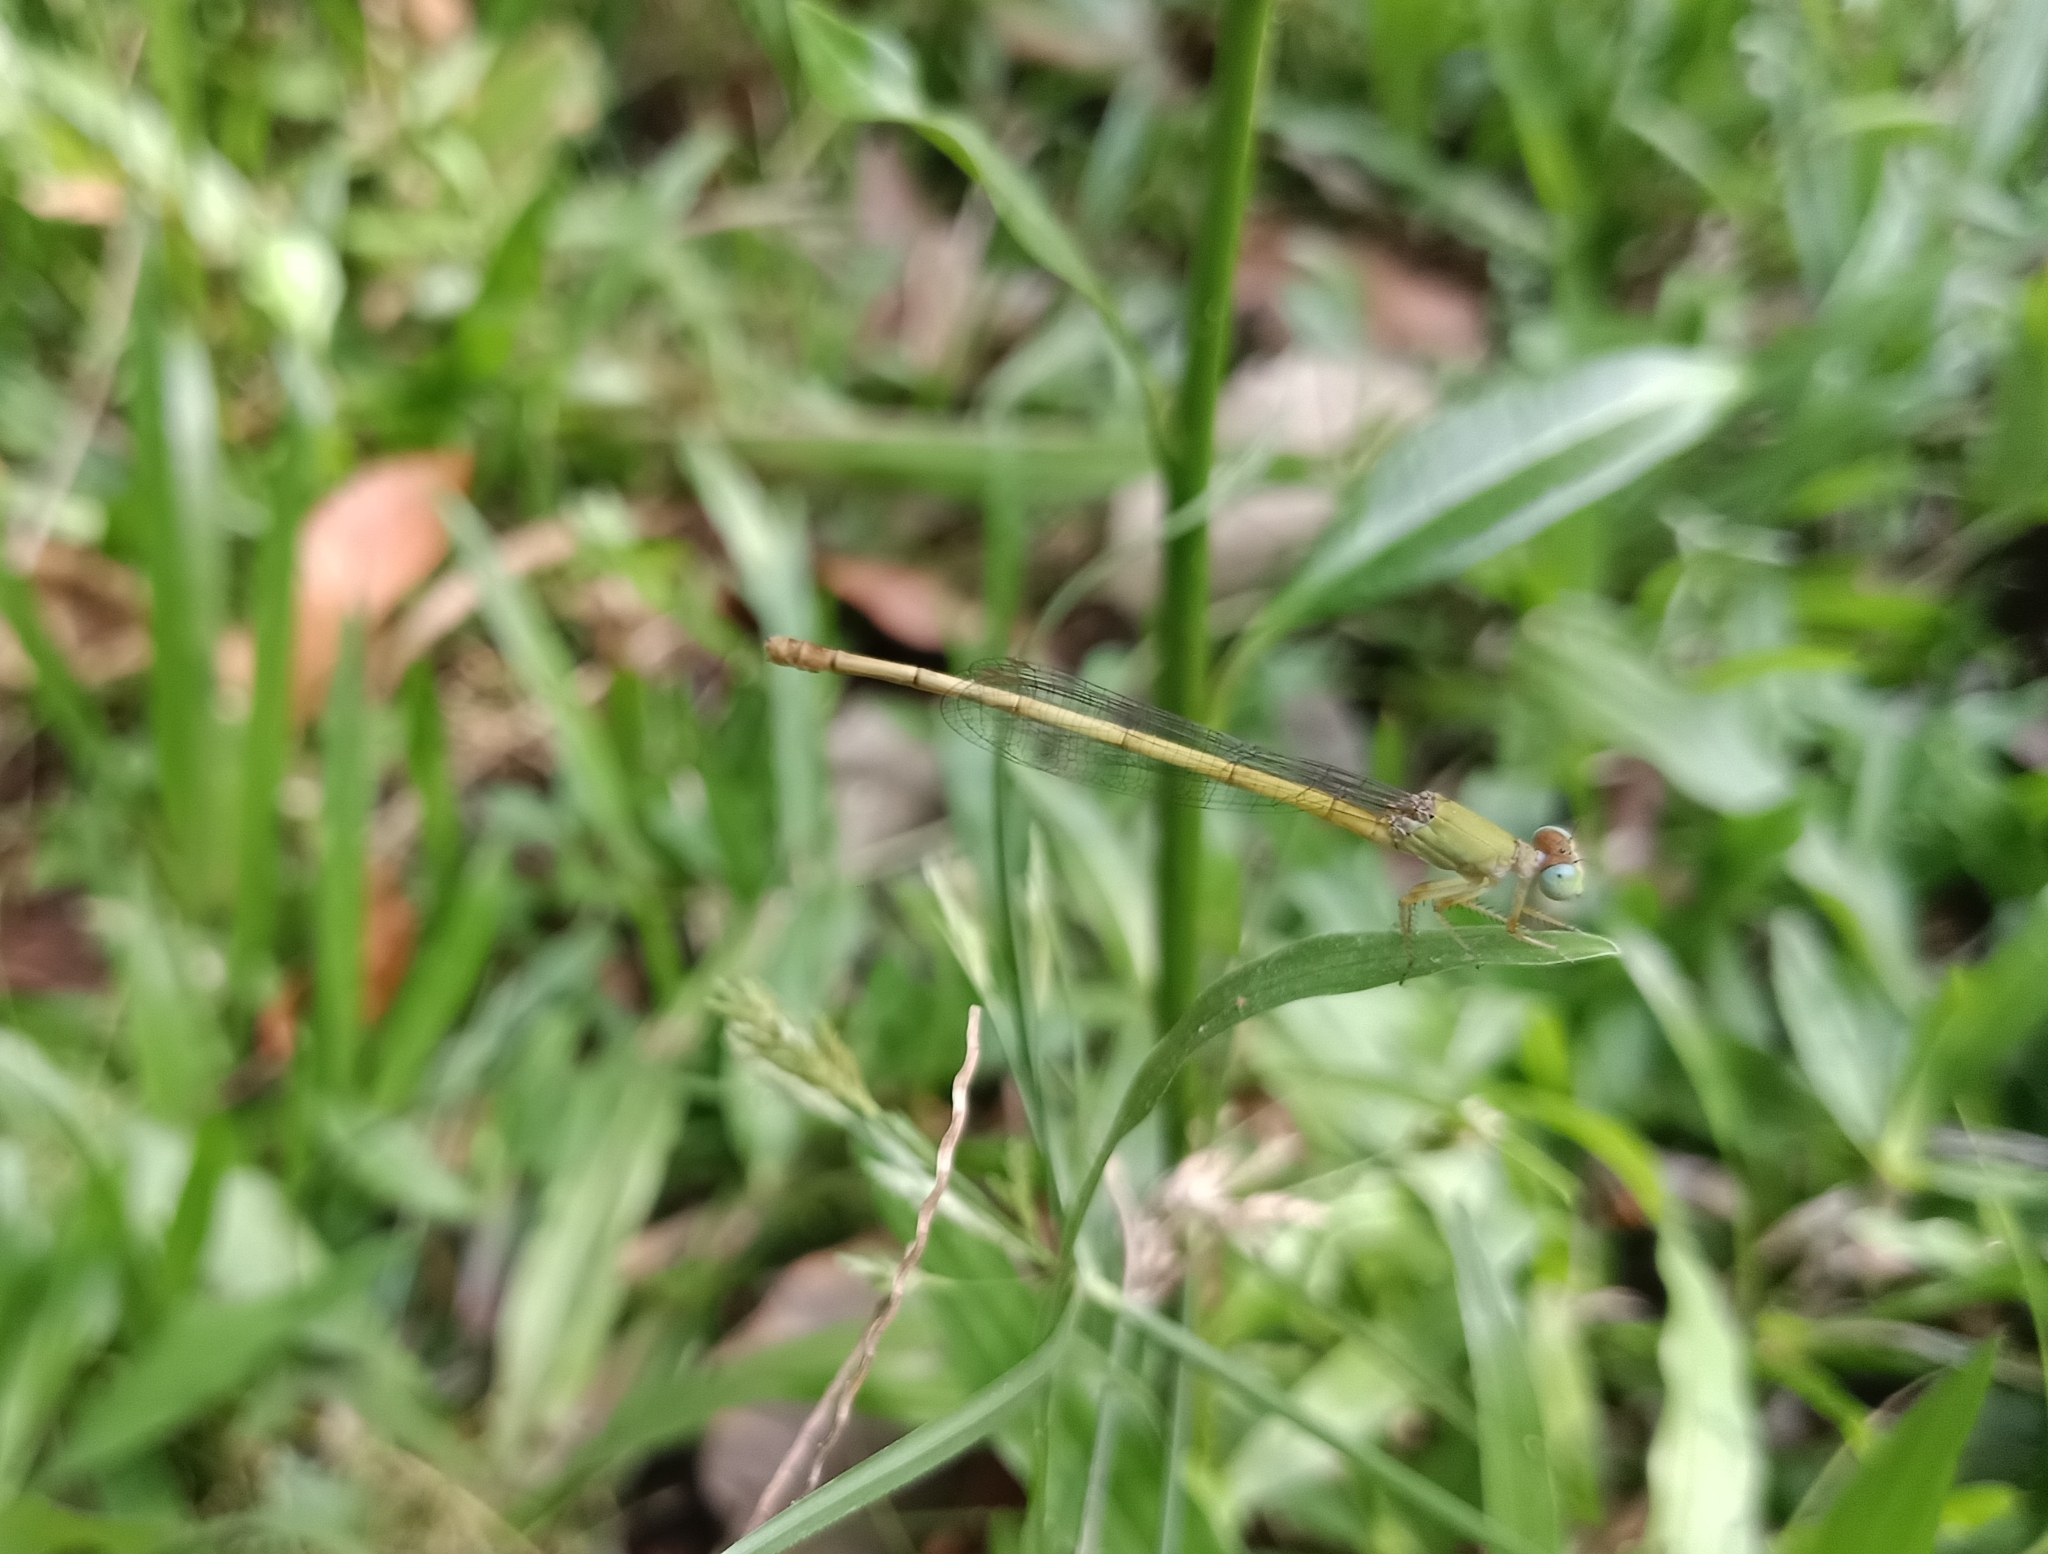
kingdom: Animalia
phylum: Arthropoda
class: Insecta
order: Odonata
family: Coenagrionidae
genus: Ceriagrion
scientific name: Ceriagrion coromandelianum
